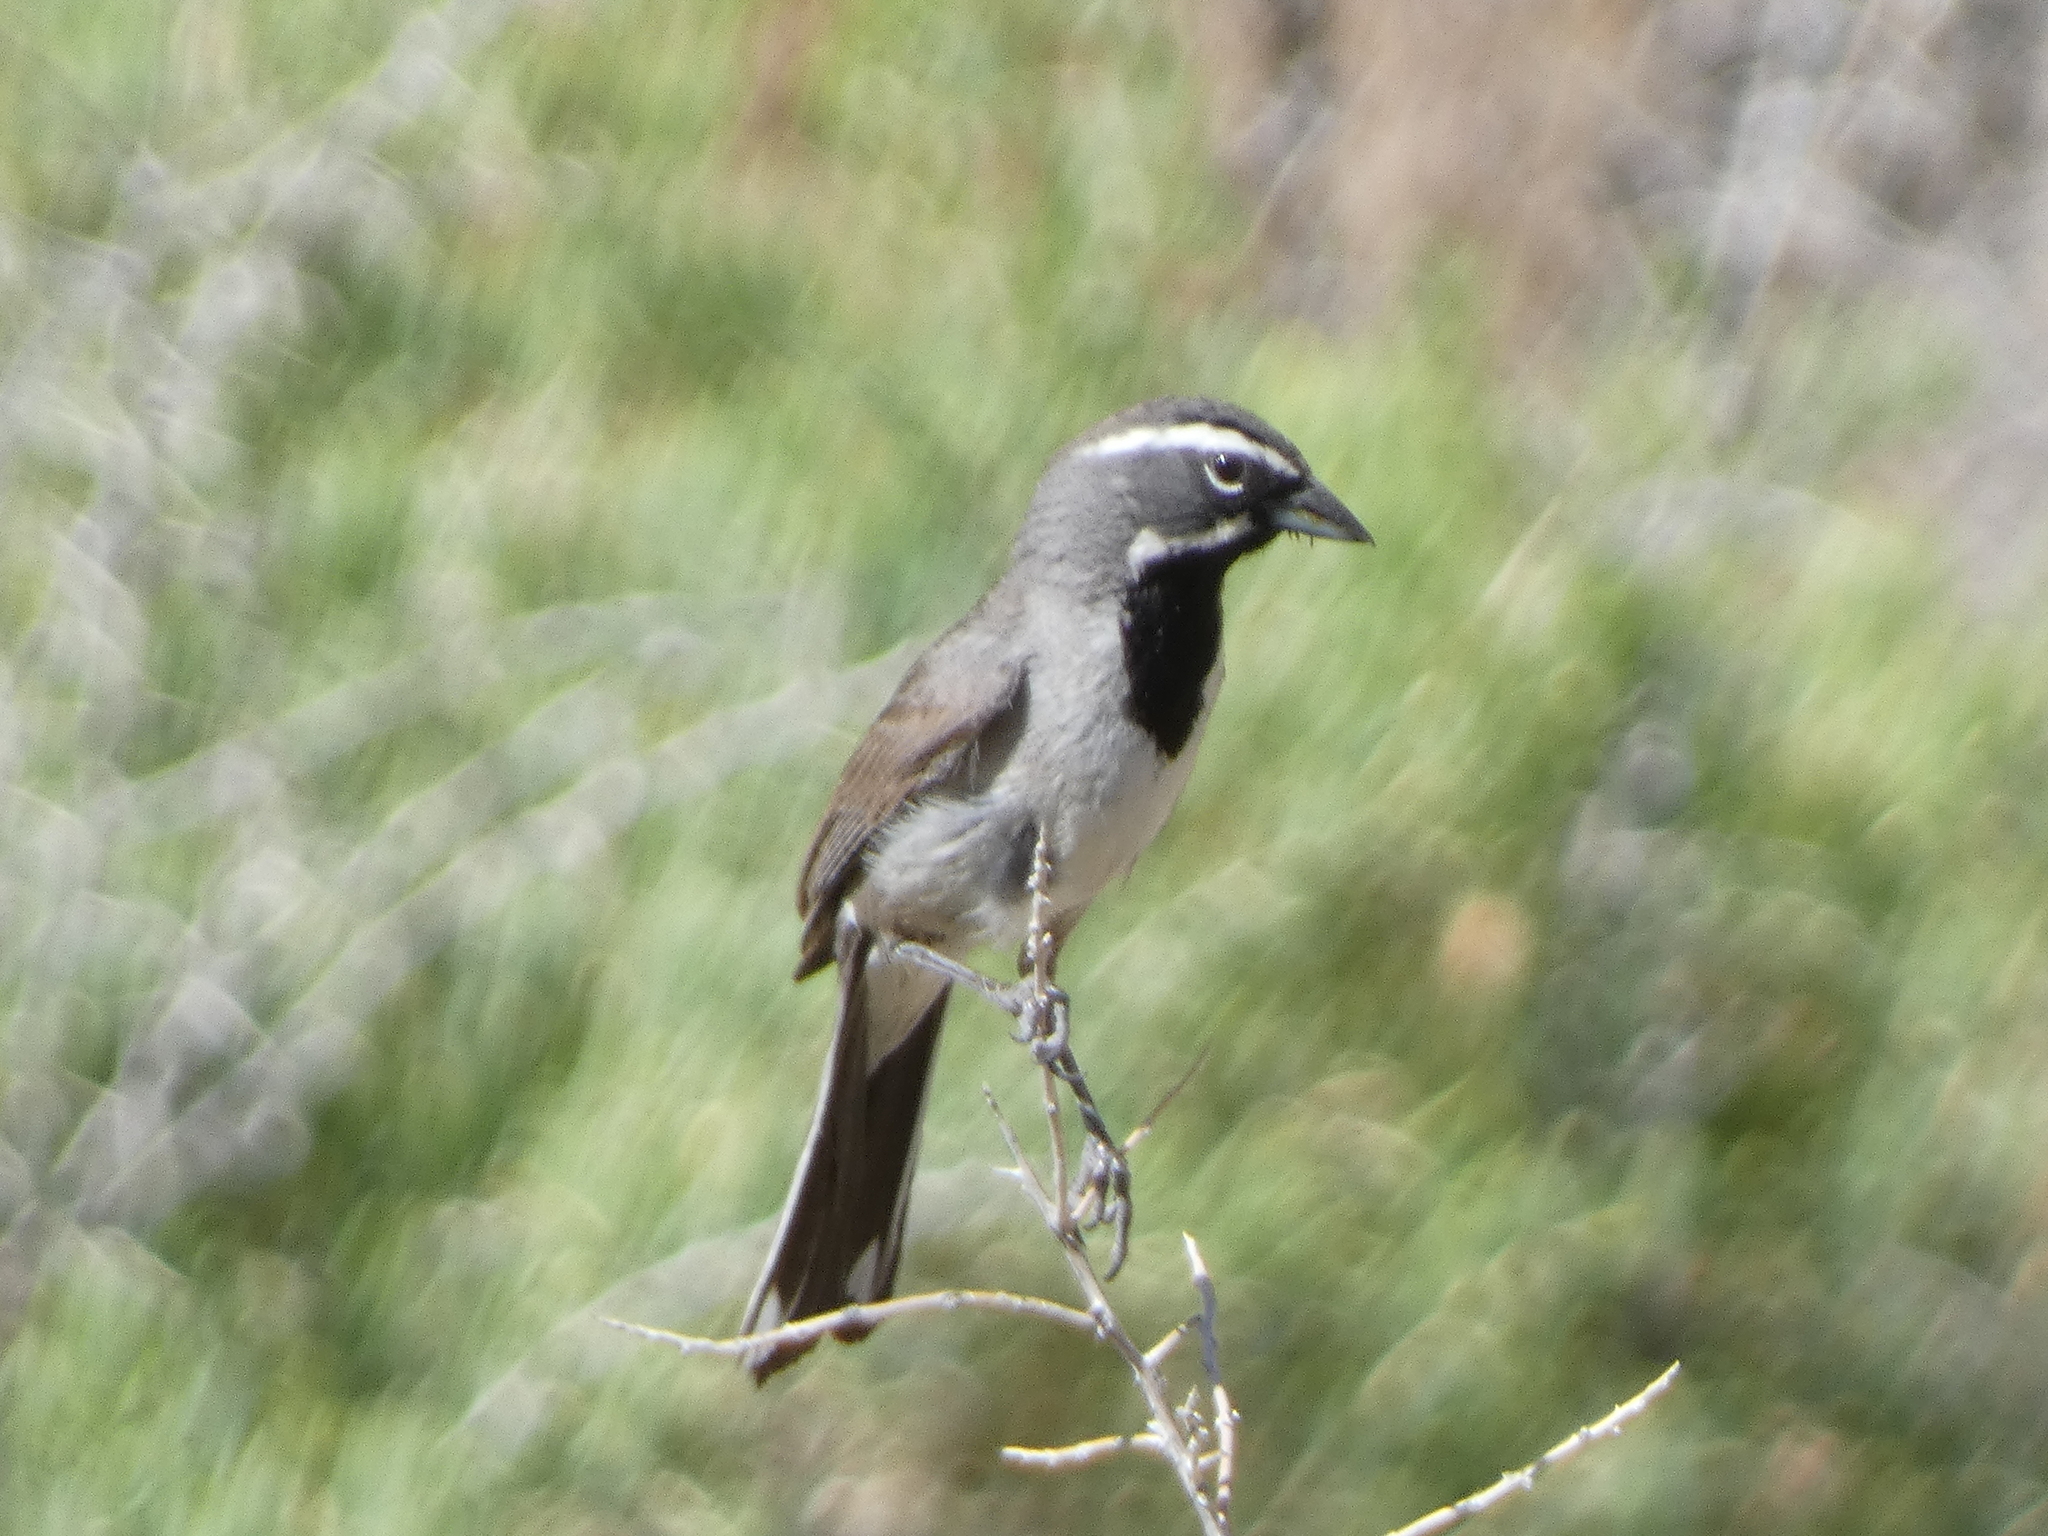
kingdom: Animalia
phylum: Chordata
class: Aves
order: Passeriformes
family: Passerellidae
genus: Amphispiza
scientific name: Amphispiza bilineata
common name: Black-throated sparrow
